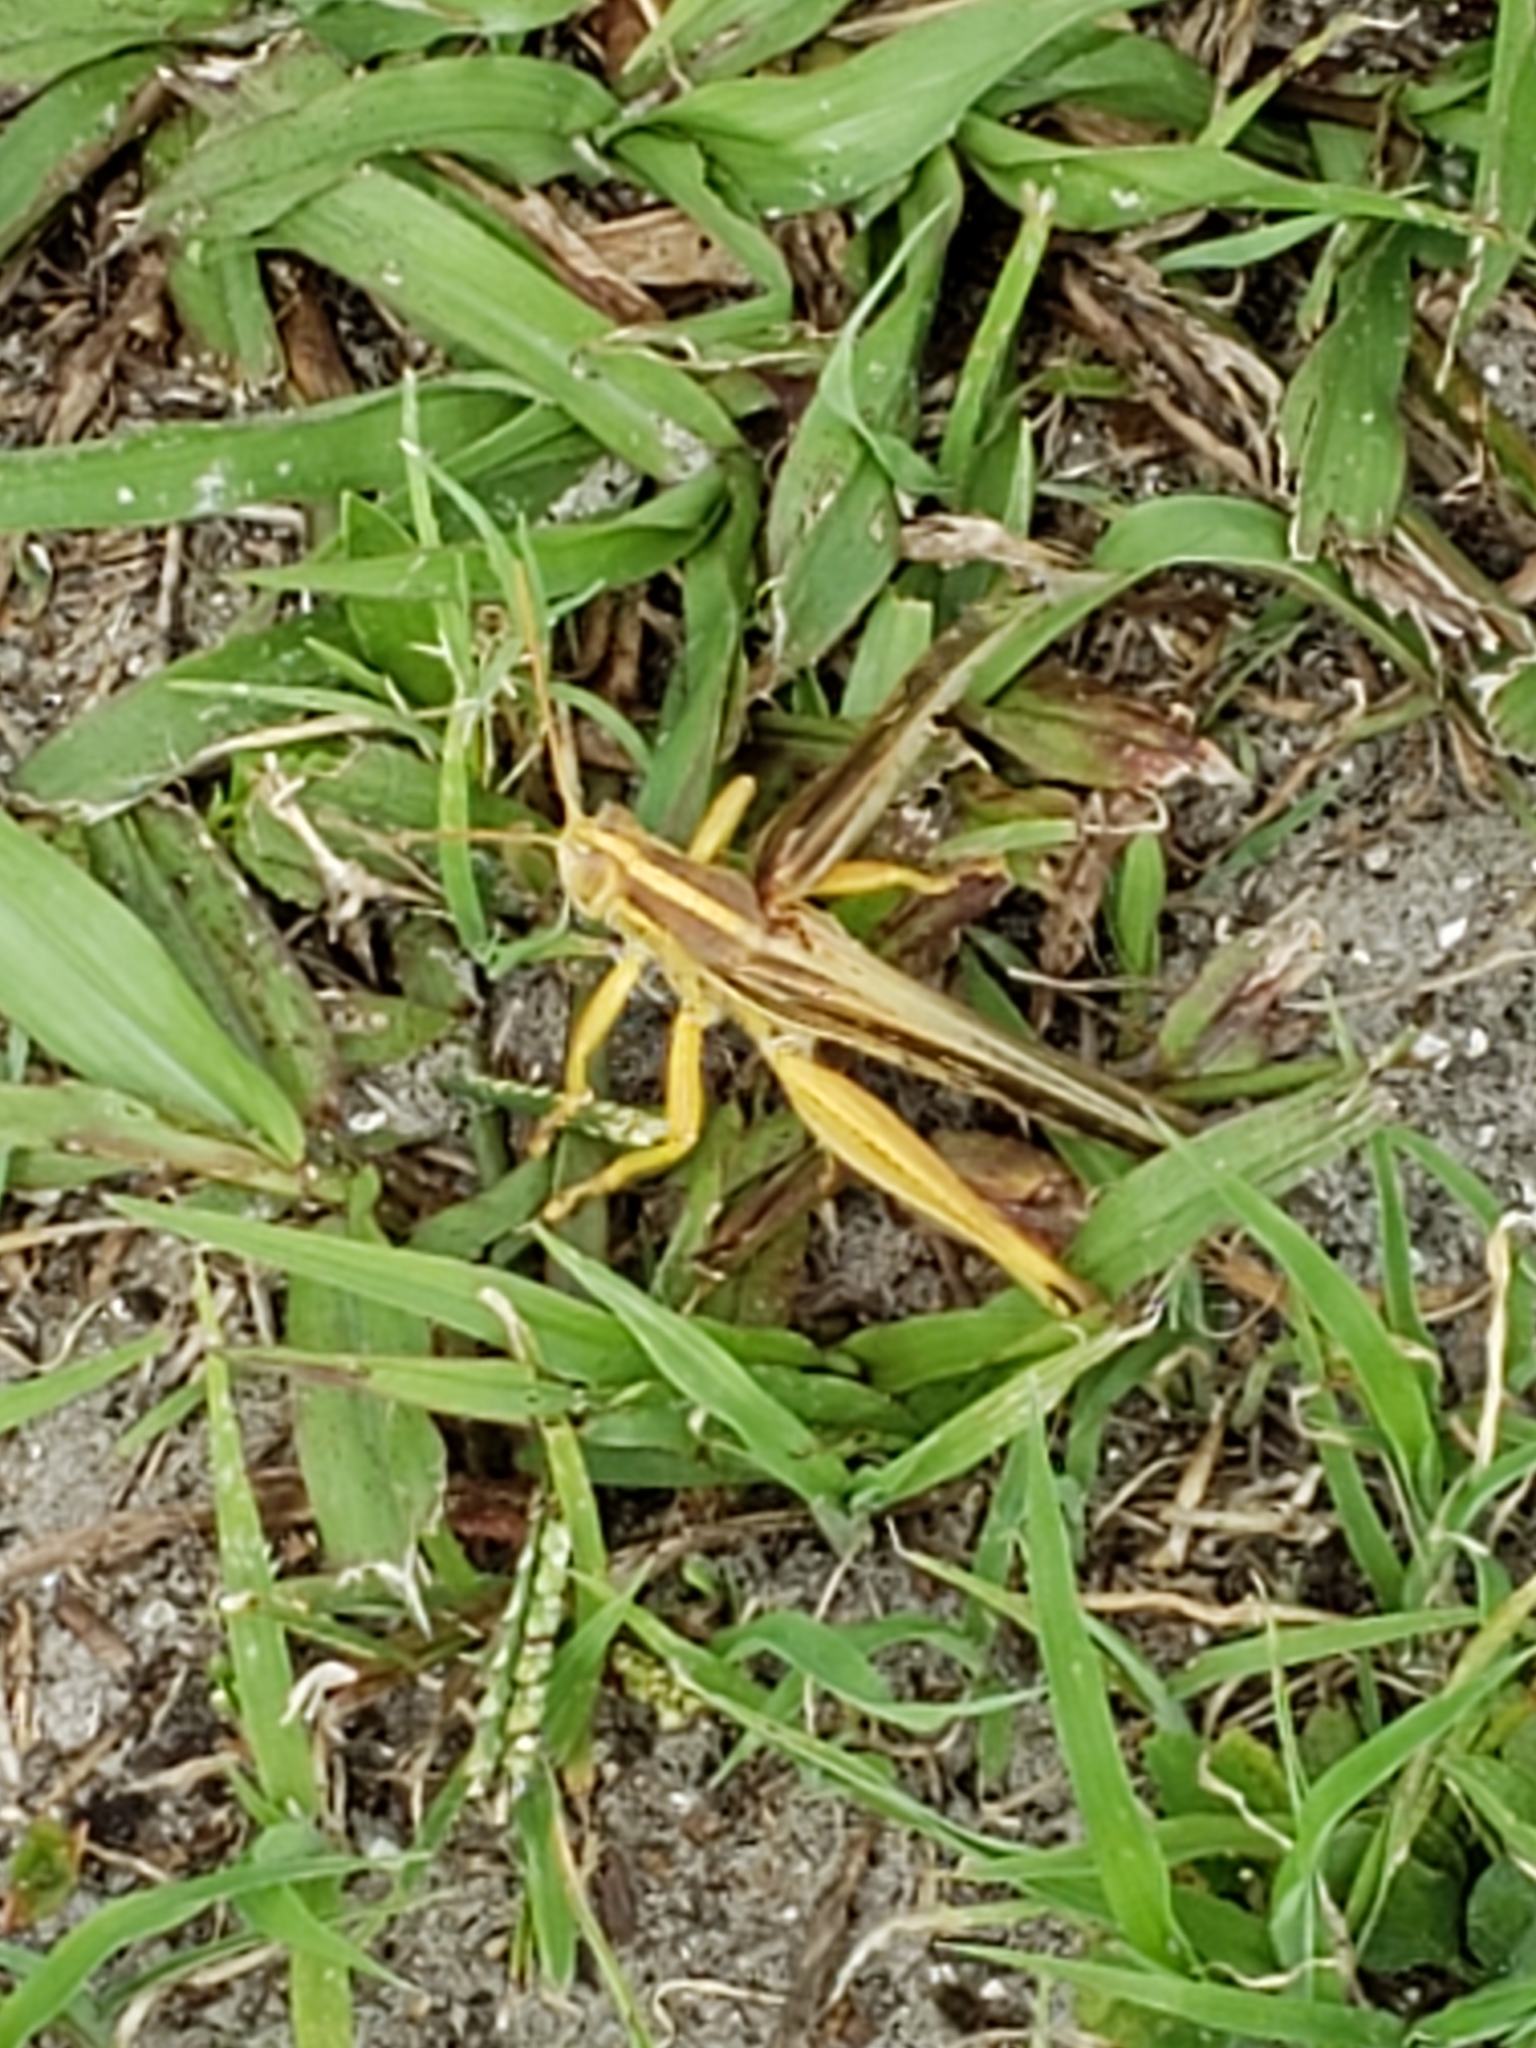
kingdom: Animalia
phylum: Arthropoda
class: Insecta
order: Orthoptera
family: Acrididae
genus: Schistocerca
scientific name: Schistocerca americana
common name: American bird locust
